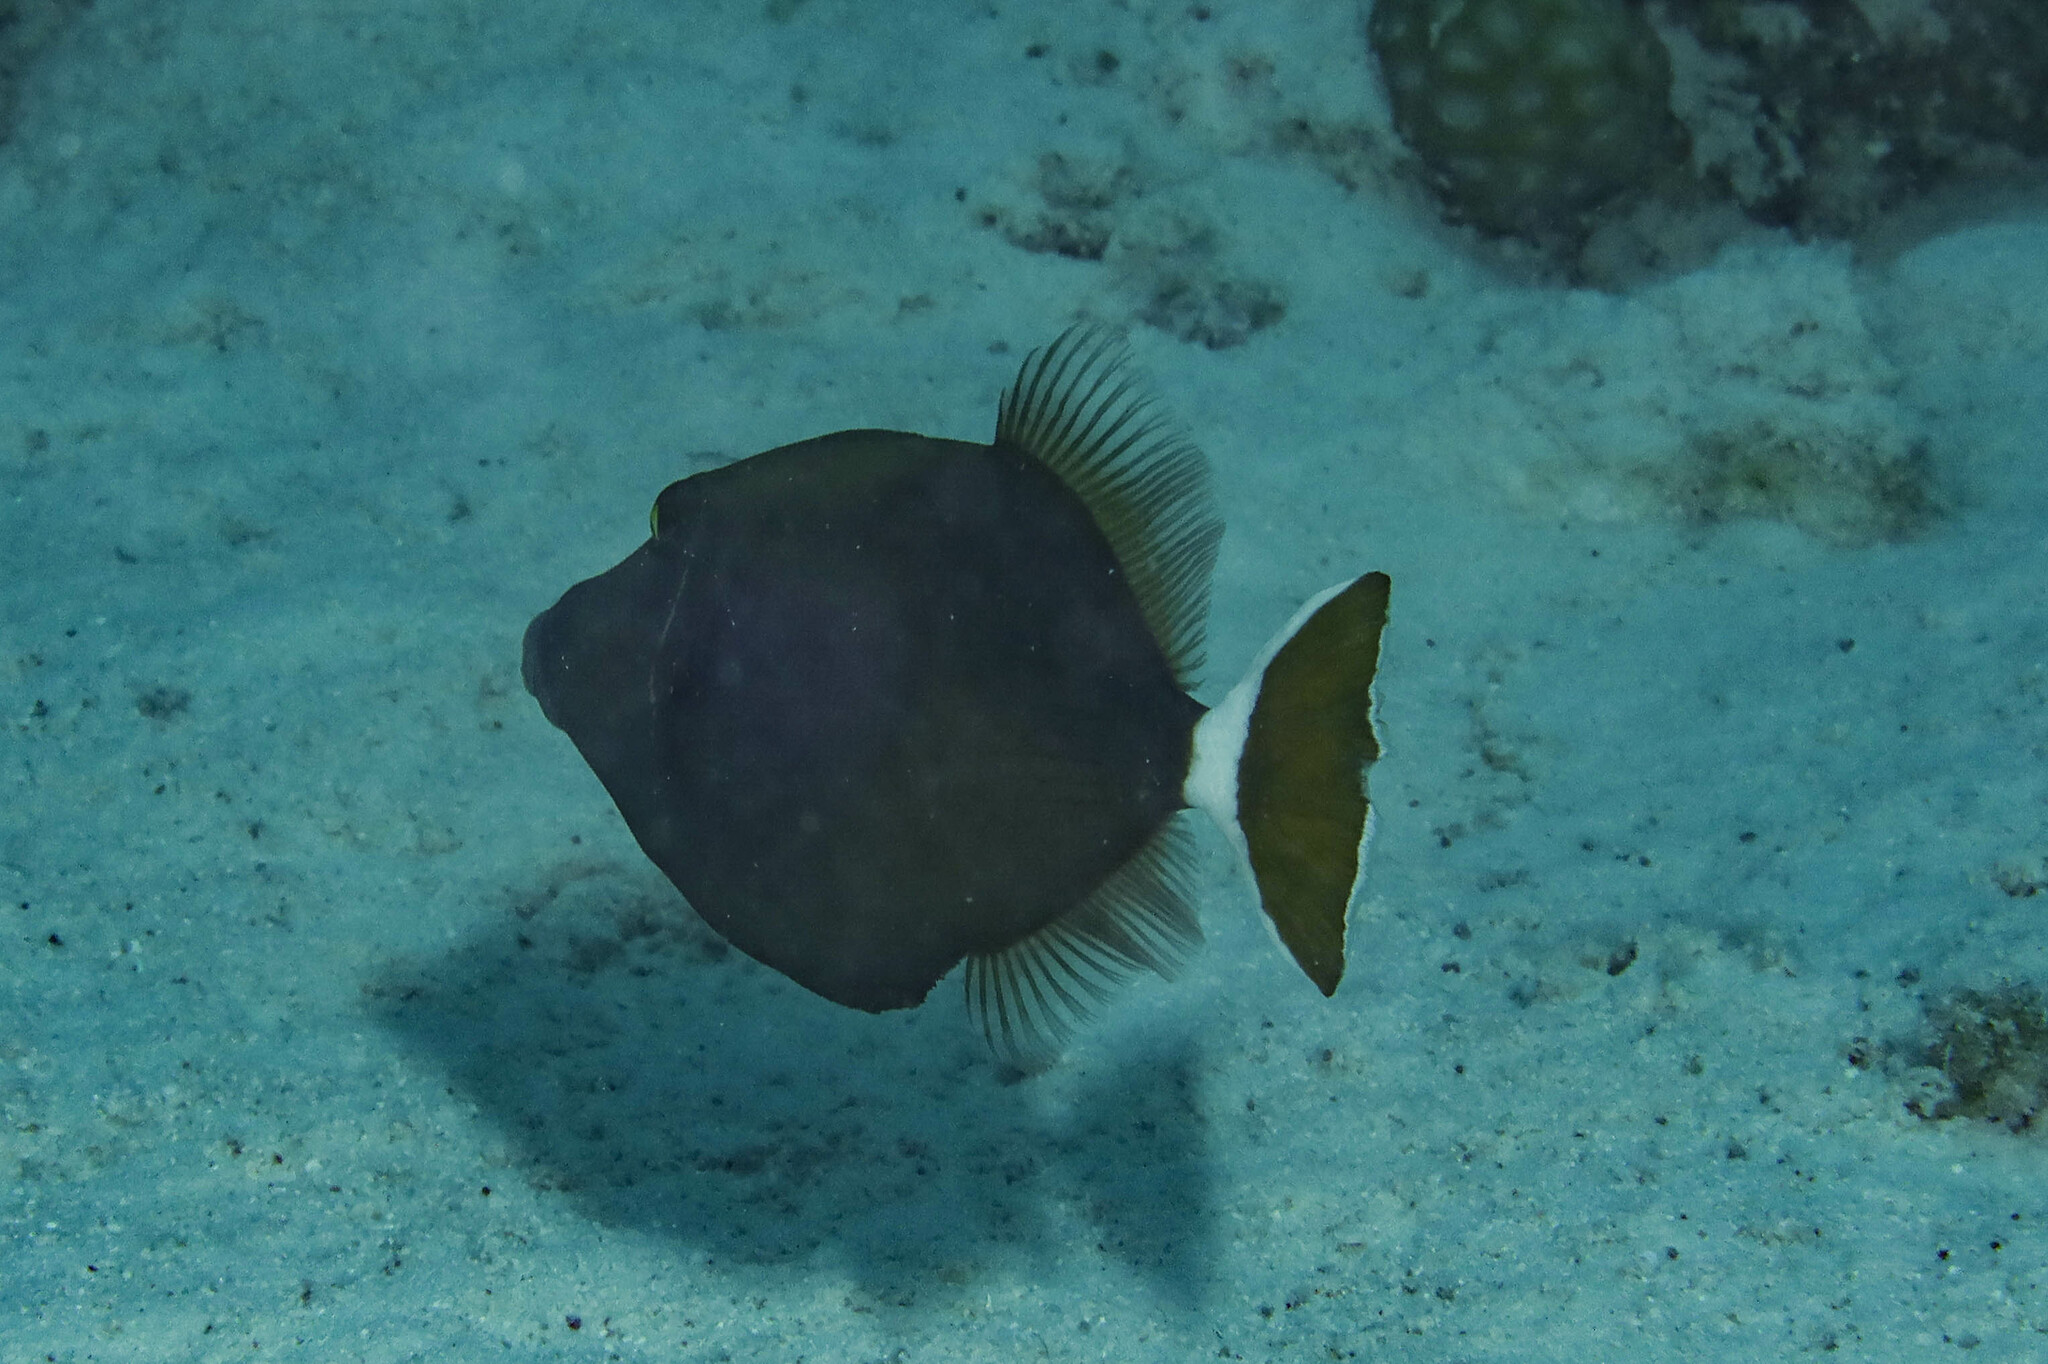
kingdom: Animalia
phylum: Chordata
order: Tetraodontiformes
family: Balistidae
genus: Sufflamen
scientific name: Sufflamen albicaudatum
